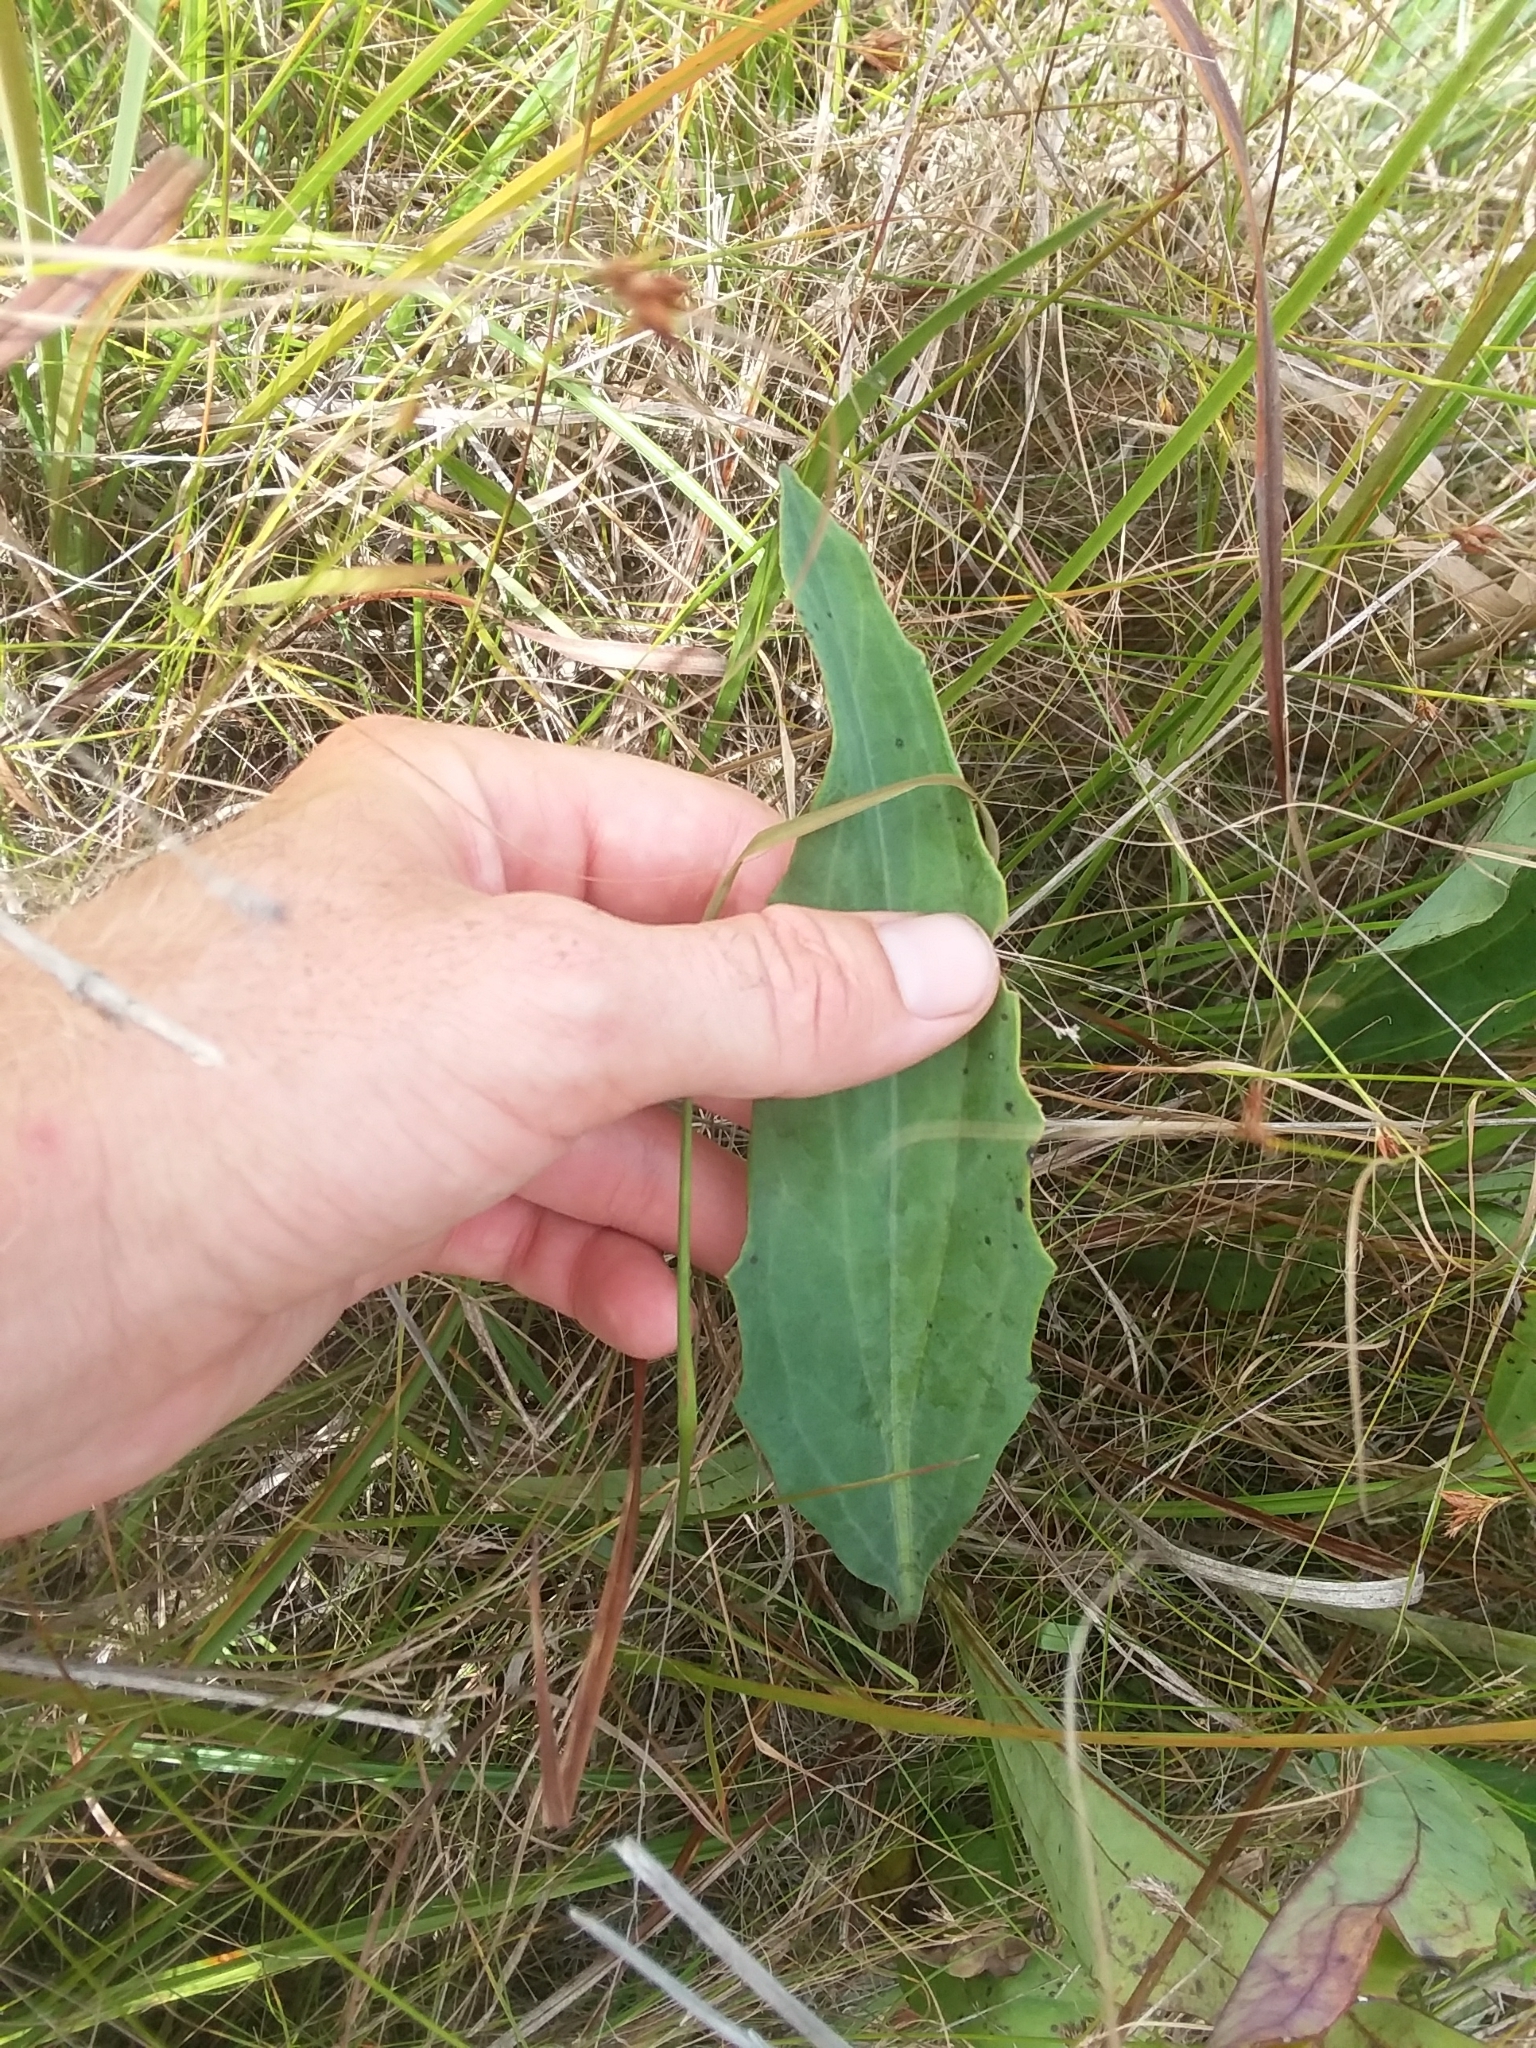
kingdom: Plantae
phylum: Tracheophyta
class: Magnoliopsida
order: Asterales
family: Asteraceae
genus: Arnoglossum
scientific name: Arnoglossum ovatum
